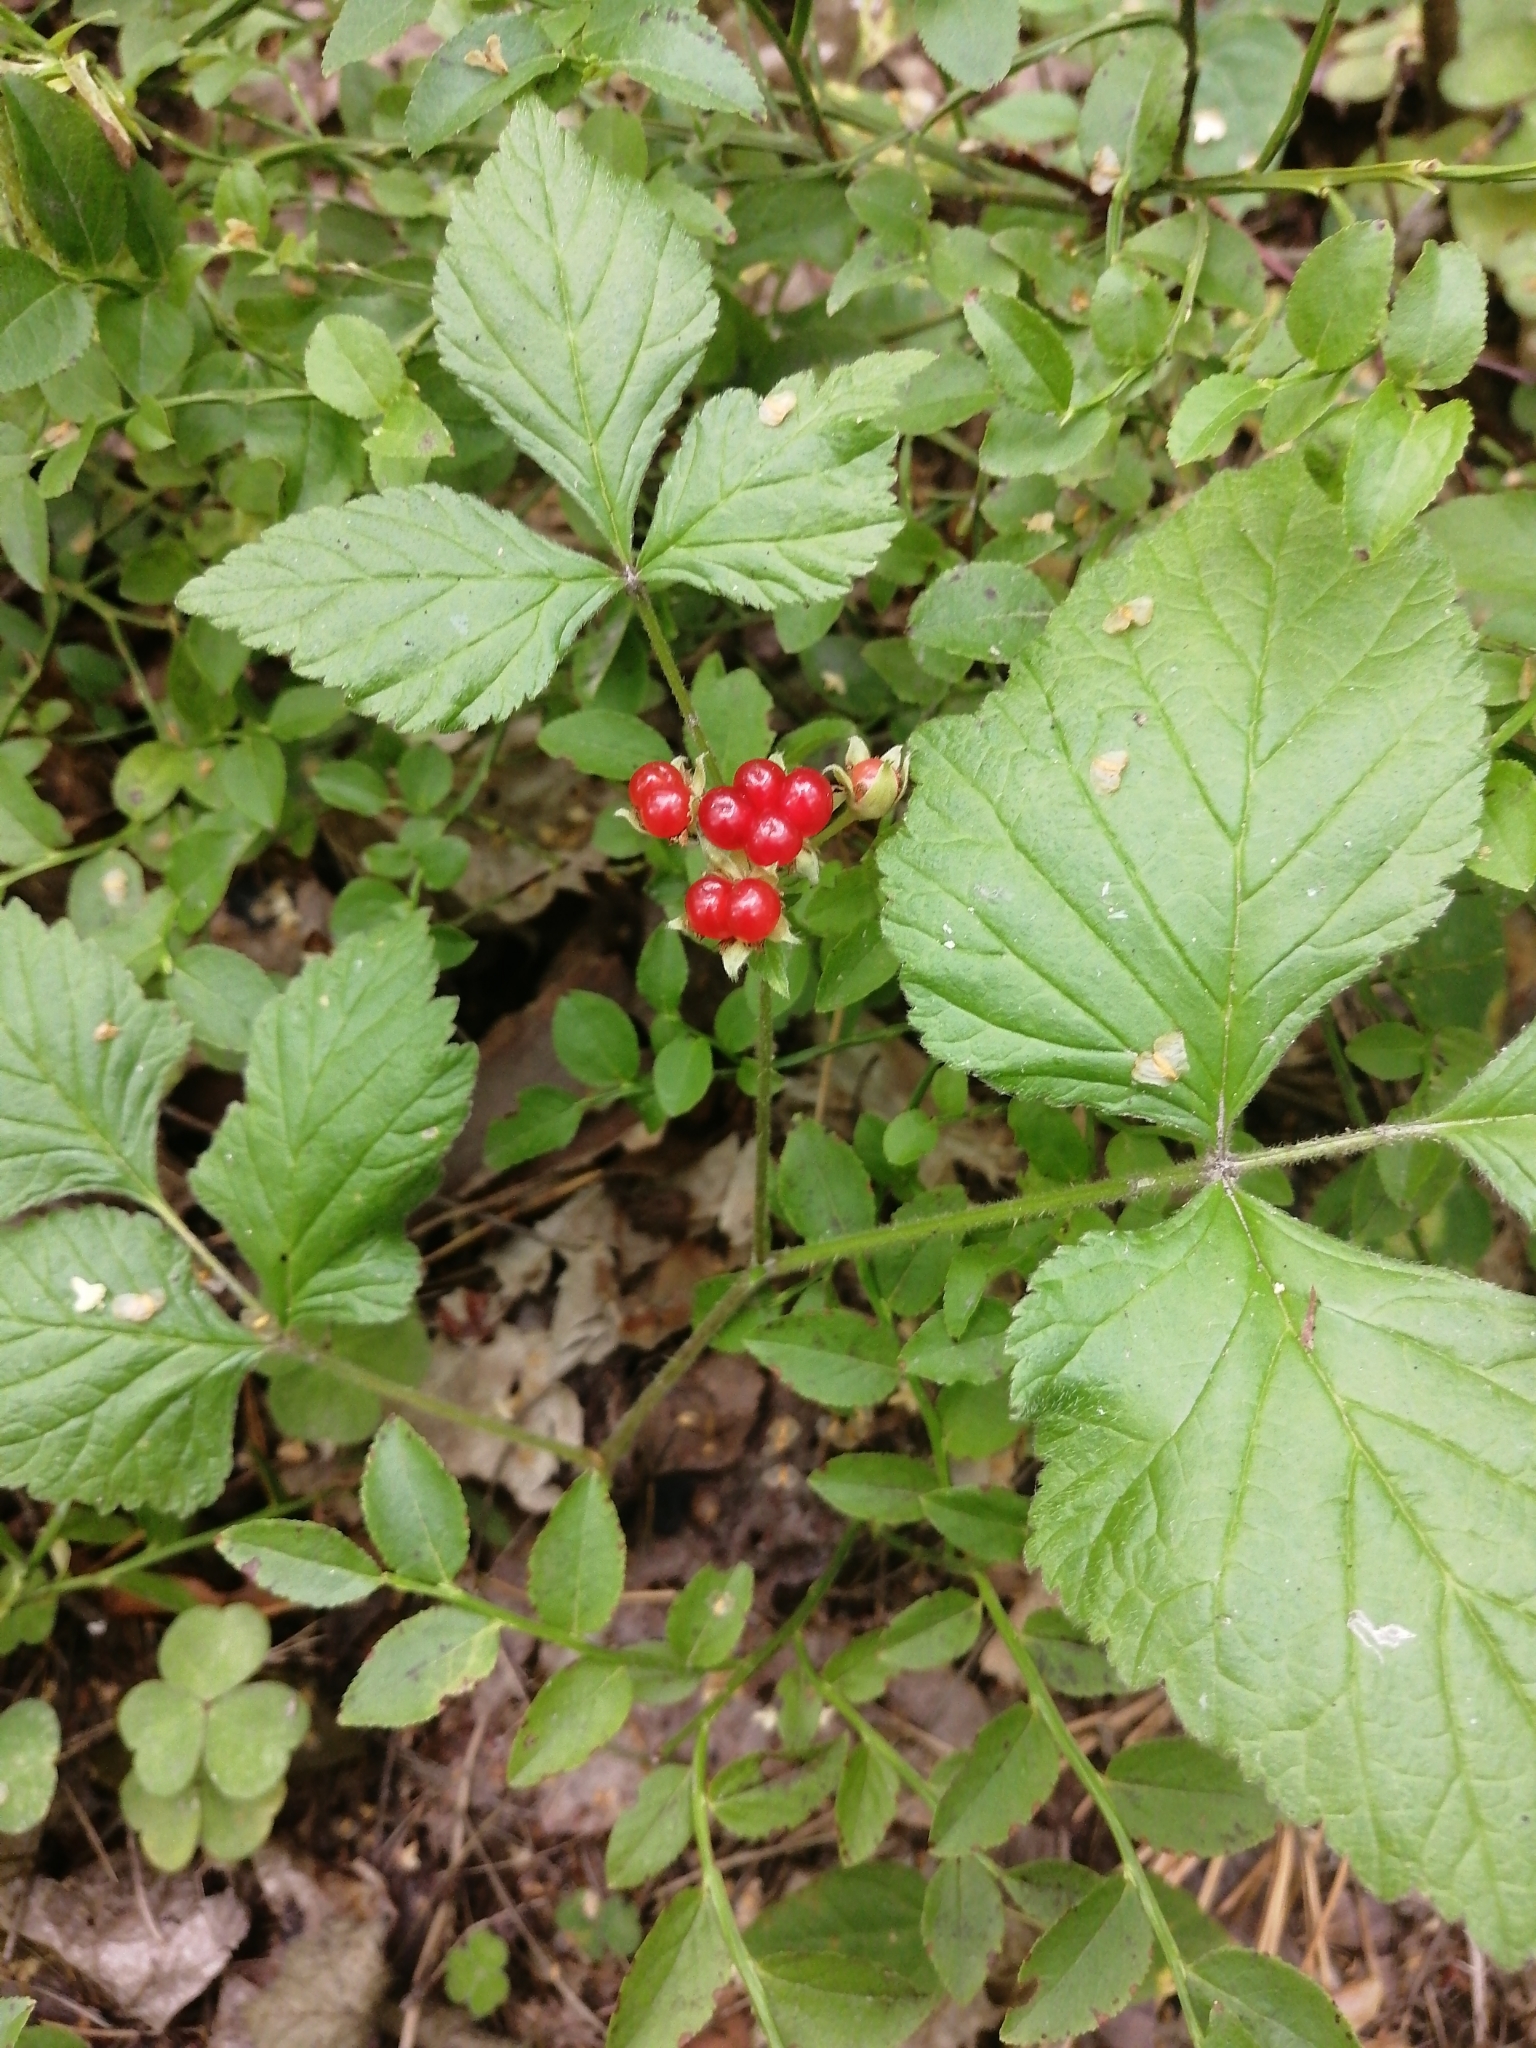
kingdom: Plantae
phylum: Tracheophyta
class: Magnoliopsida
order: Rosales
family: Rosaceae
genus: Rubus
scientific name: Rubus saxatilis
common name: Stone bramble
